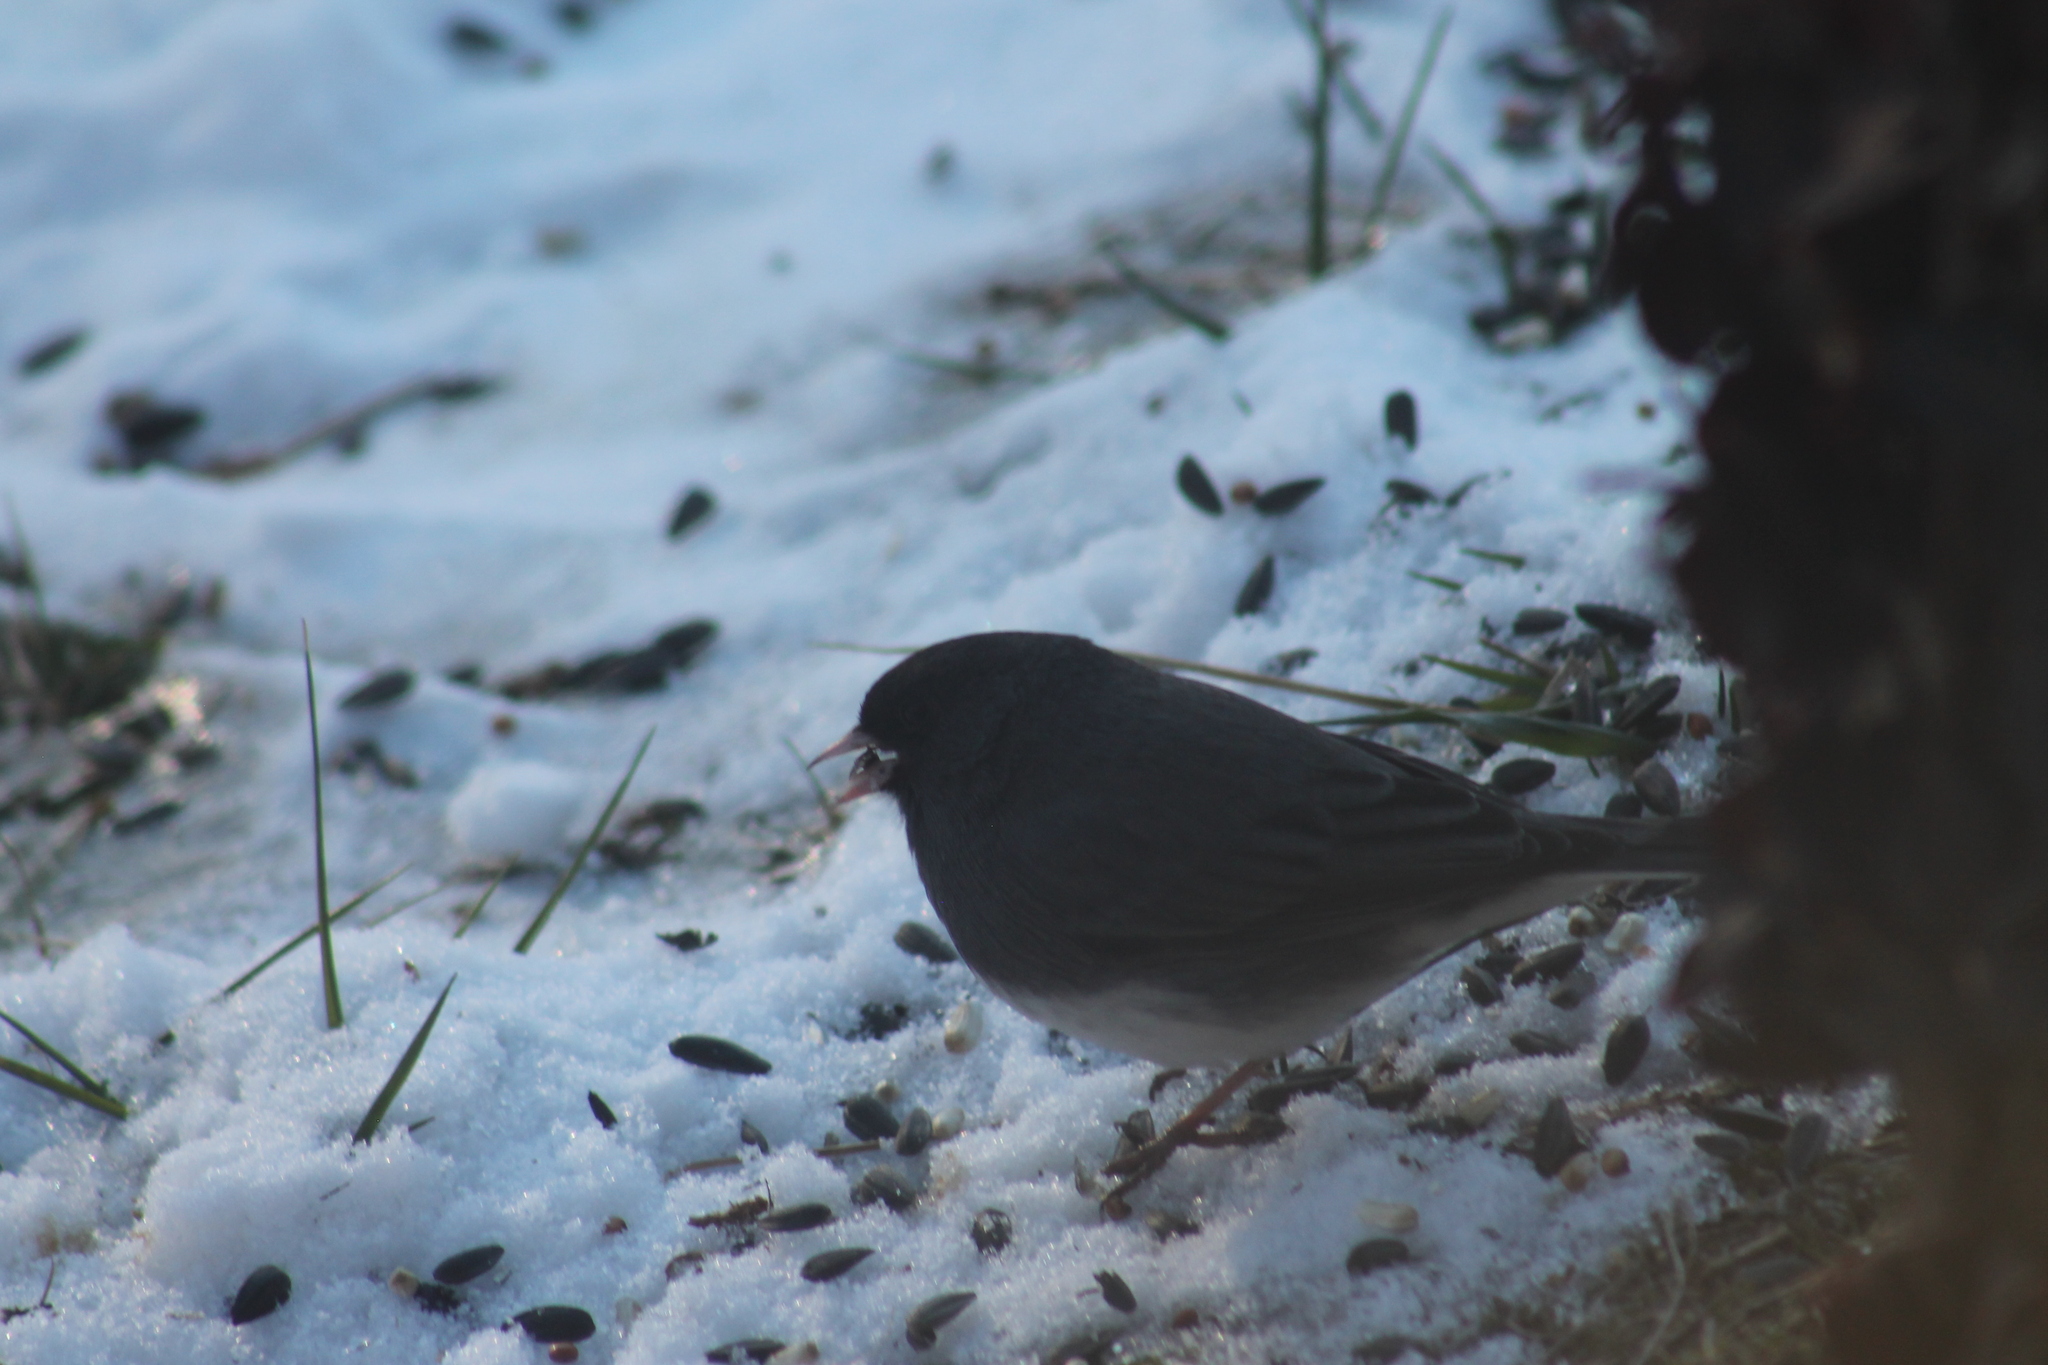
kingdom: Animalia
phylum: Chordata
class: Aves
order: Passeriformes
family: Passerellidae
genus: Junco
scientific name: Junco hyemalis
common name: Dark-eyed junco
